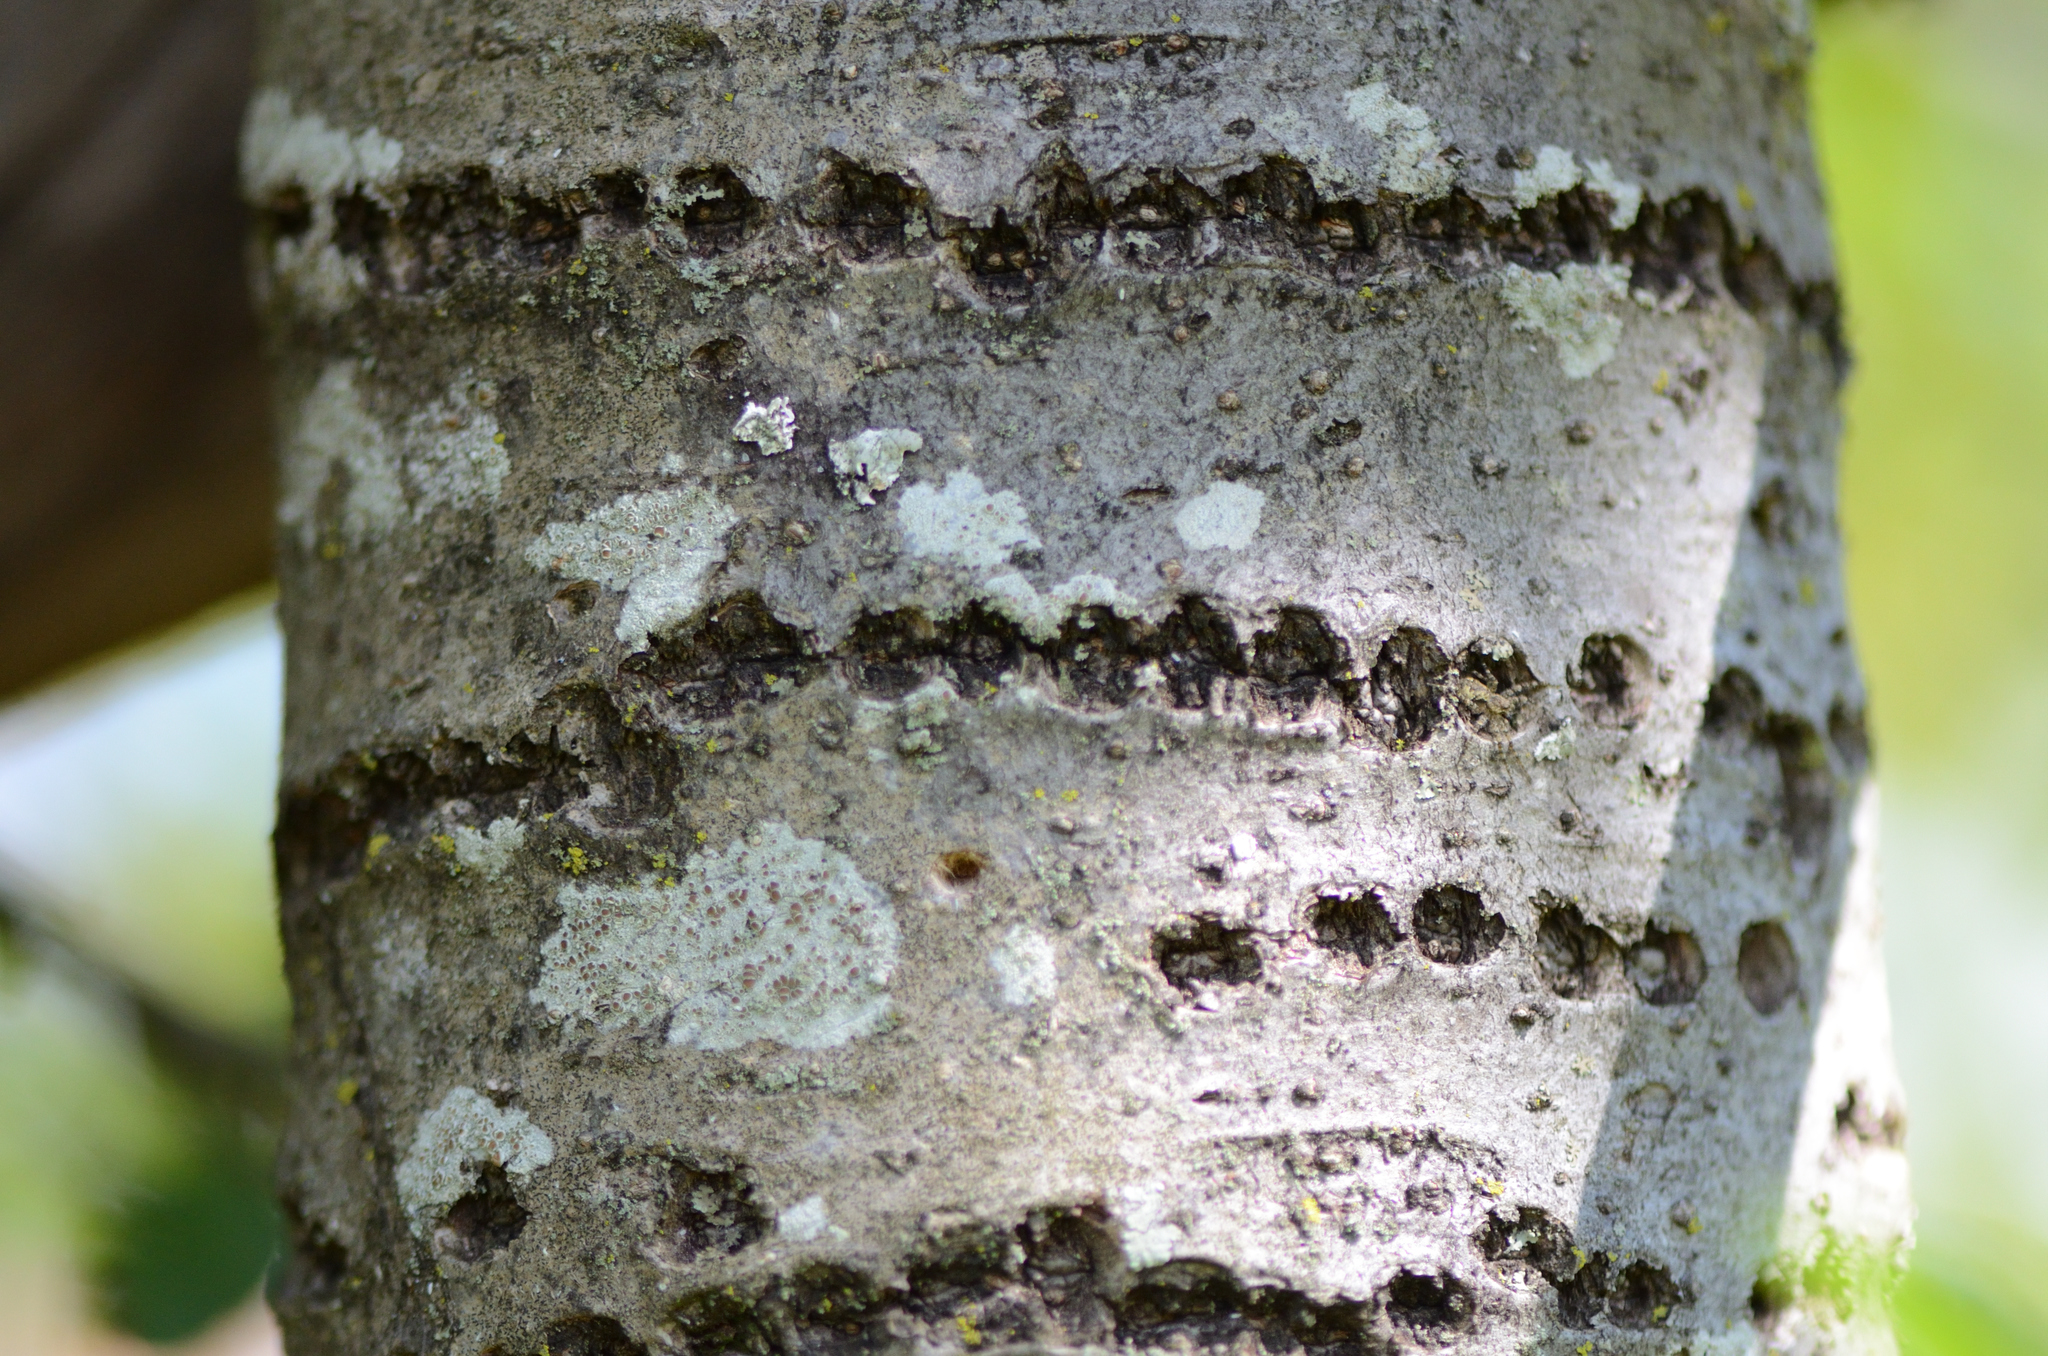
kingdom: Animalia
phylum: Chordata
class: Aves
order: Piciformes
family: Picidae
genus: Sphyrapicus
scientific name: Sphyrapicus varius
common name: Yellow-bellied sapsucker
